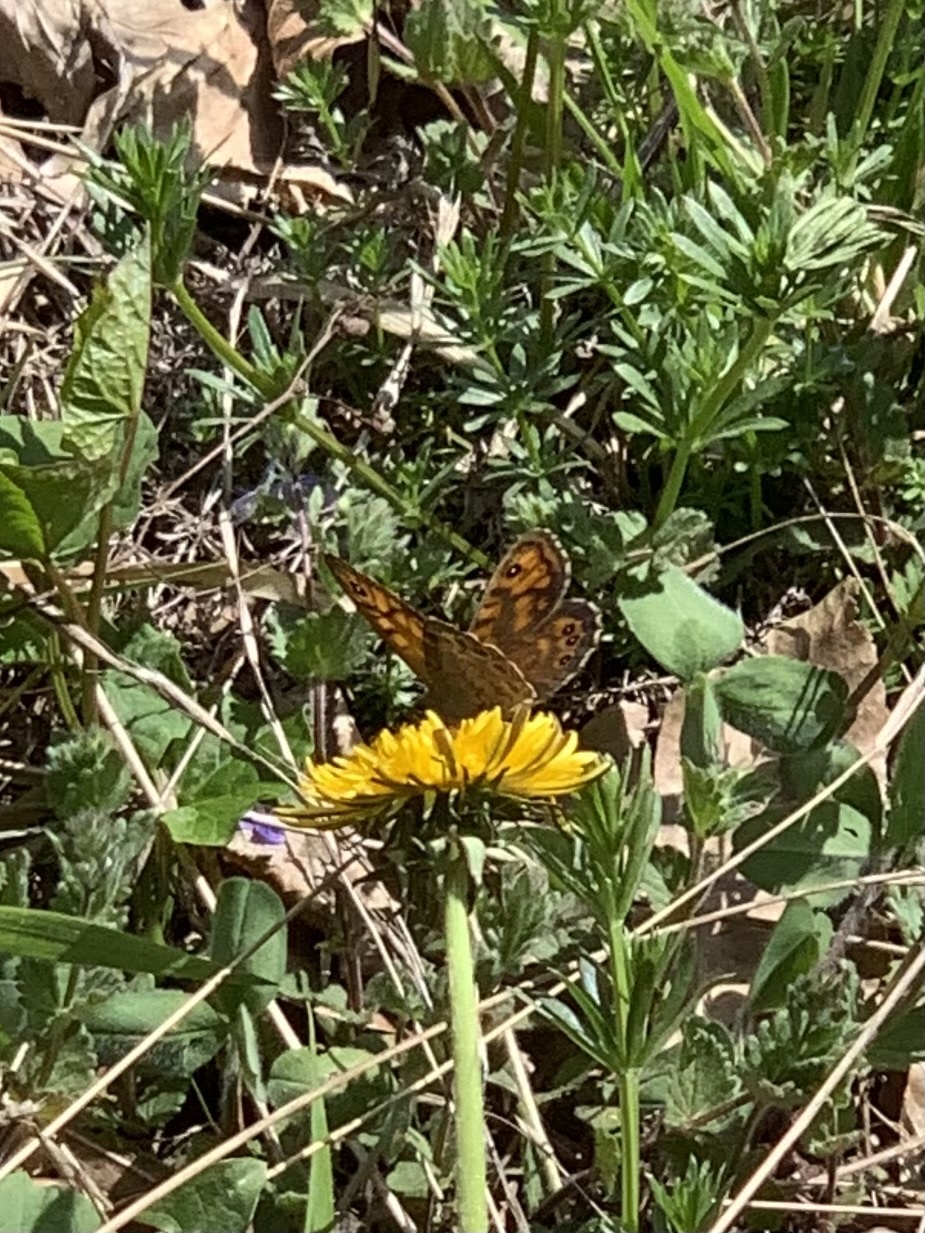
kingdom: Animalia
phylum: Arthropoda
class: Insecta
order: Lepidoptera
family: Nymphalidae
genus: Pararge
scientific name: Pararge Lasiommata megera
